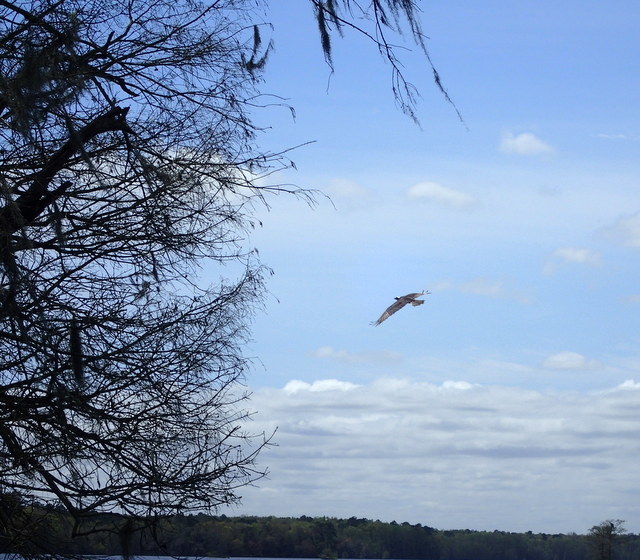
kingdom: Animalia
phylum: Chordata
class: Aves
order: Accipitriformes
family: Pandionidae
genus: Pandion
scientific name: Pandion haliaetus
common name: Osprey
